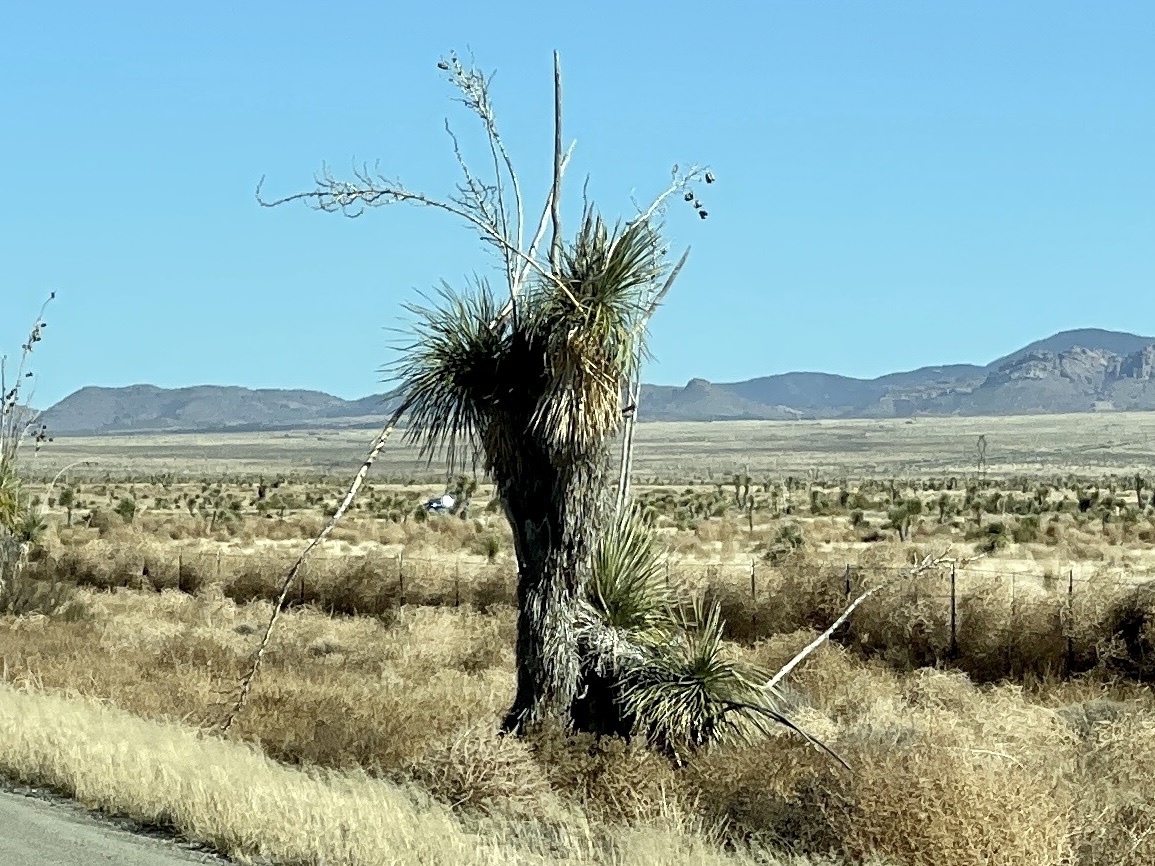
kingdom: Plantae
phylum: Tracheophyta
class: Liliopsida
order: Asparagales
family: Asparagaceae
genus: Yucca
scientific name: Yucca elata
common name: Palmella
